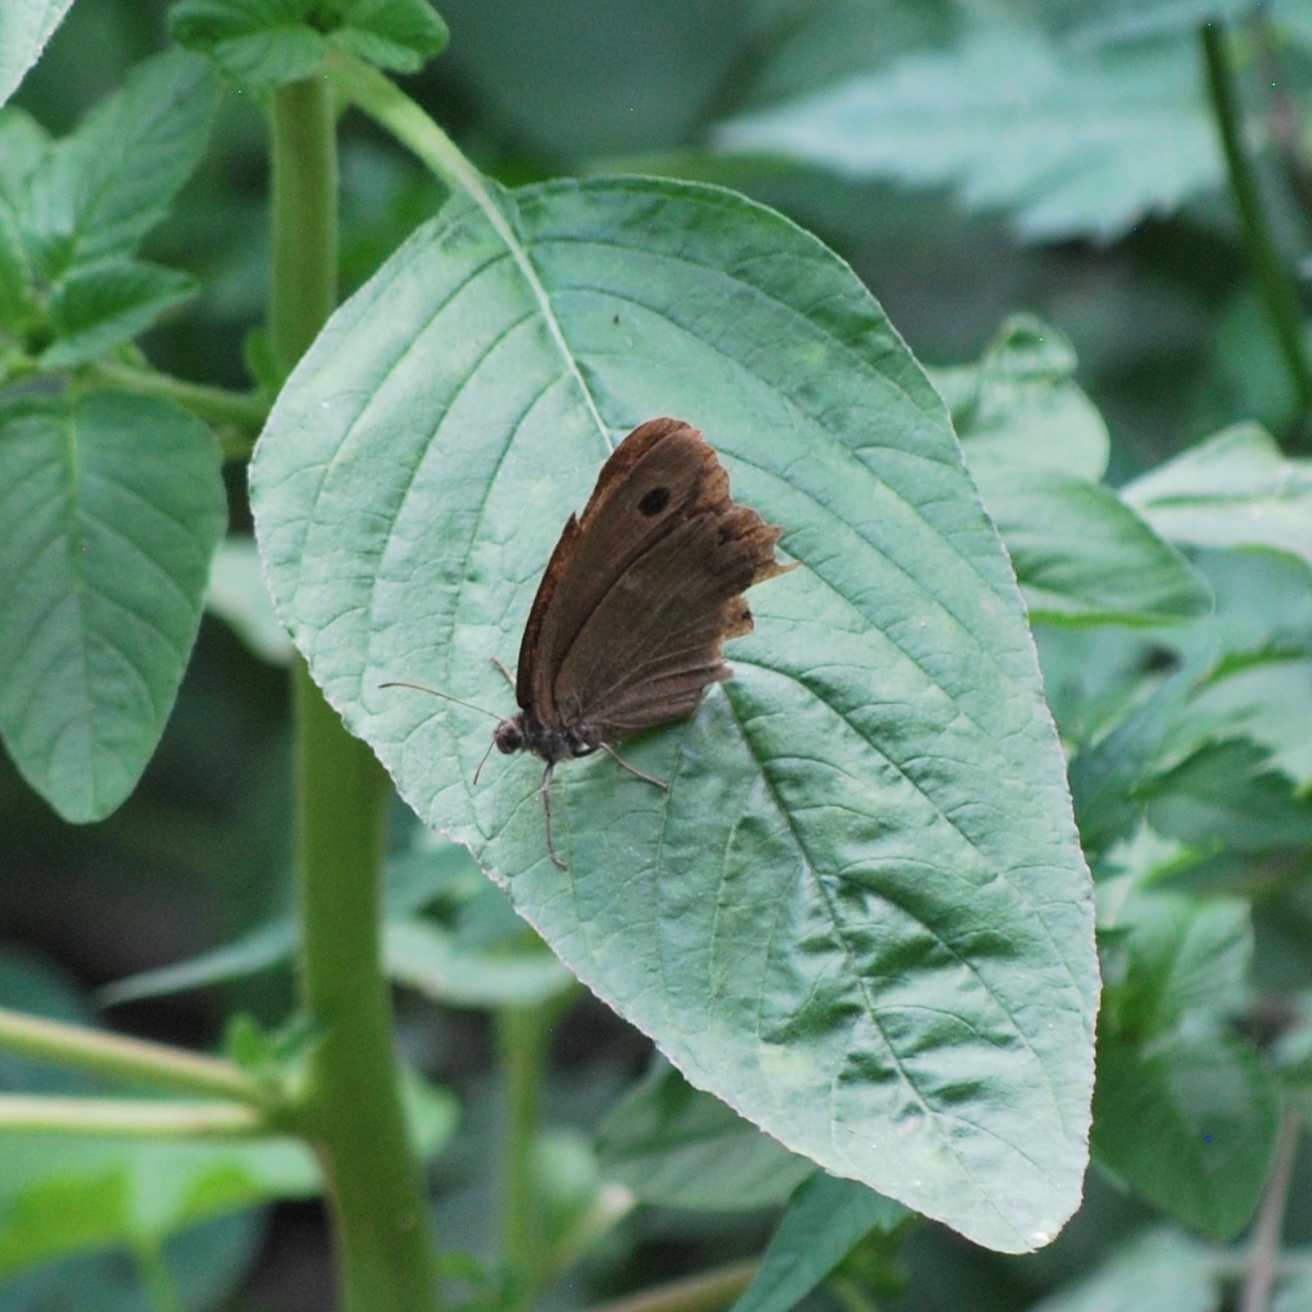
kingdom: Animalia
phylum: Arthropoda
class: Insecta
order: Lepidoptera
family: Nymphalidae
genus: Minois
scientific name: Minois dryas
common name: Dryad
